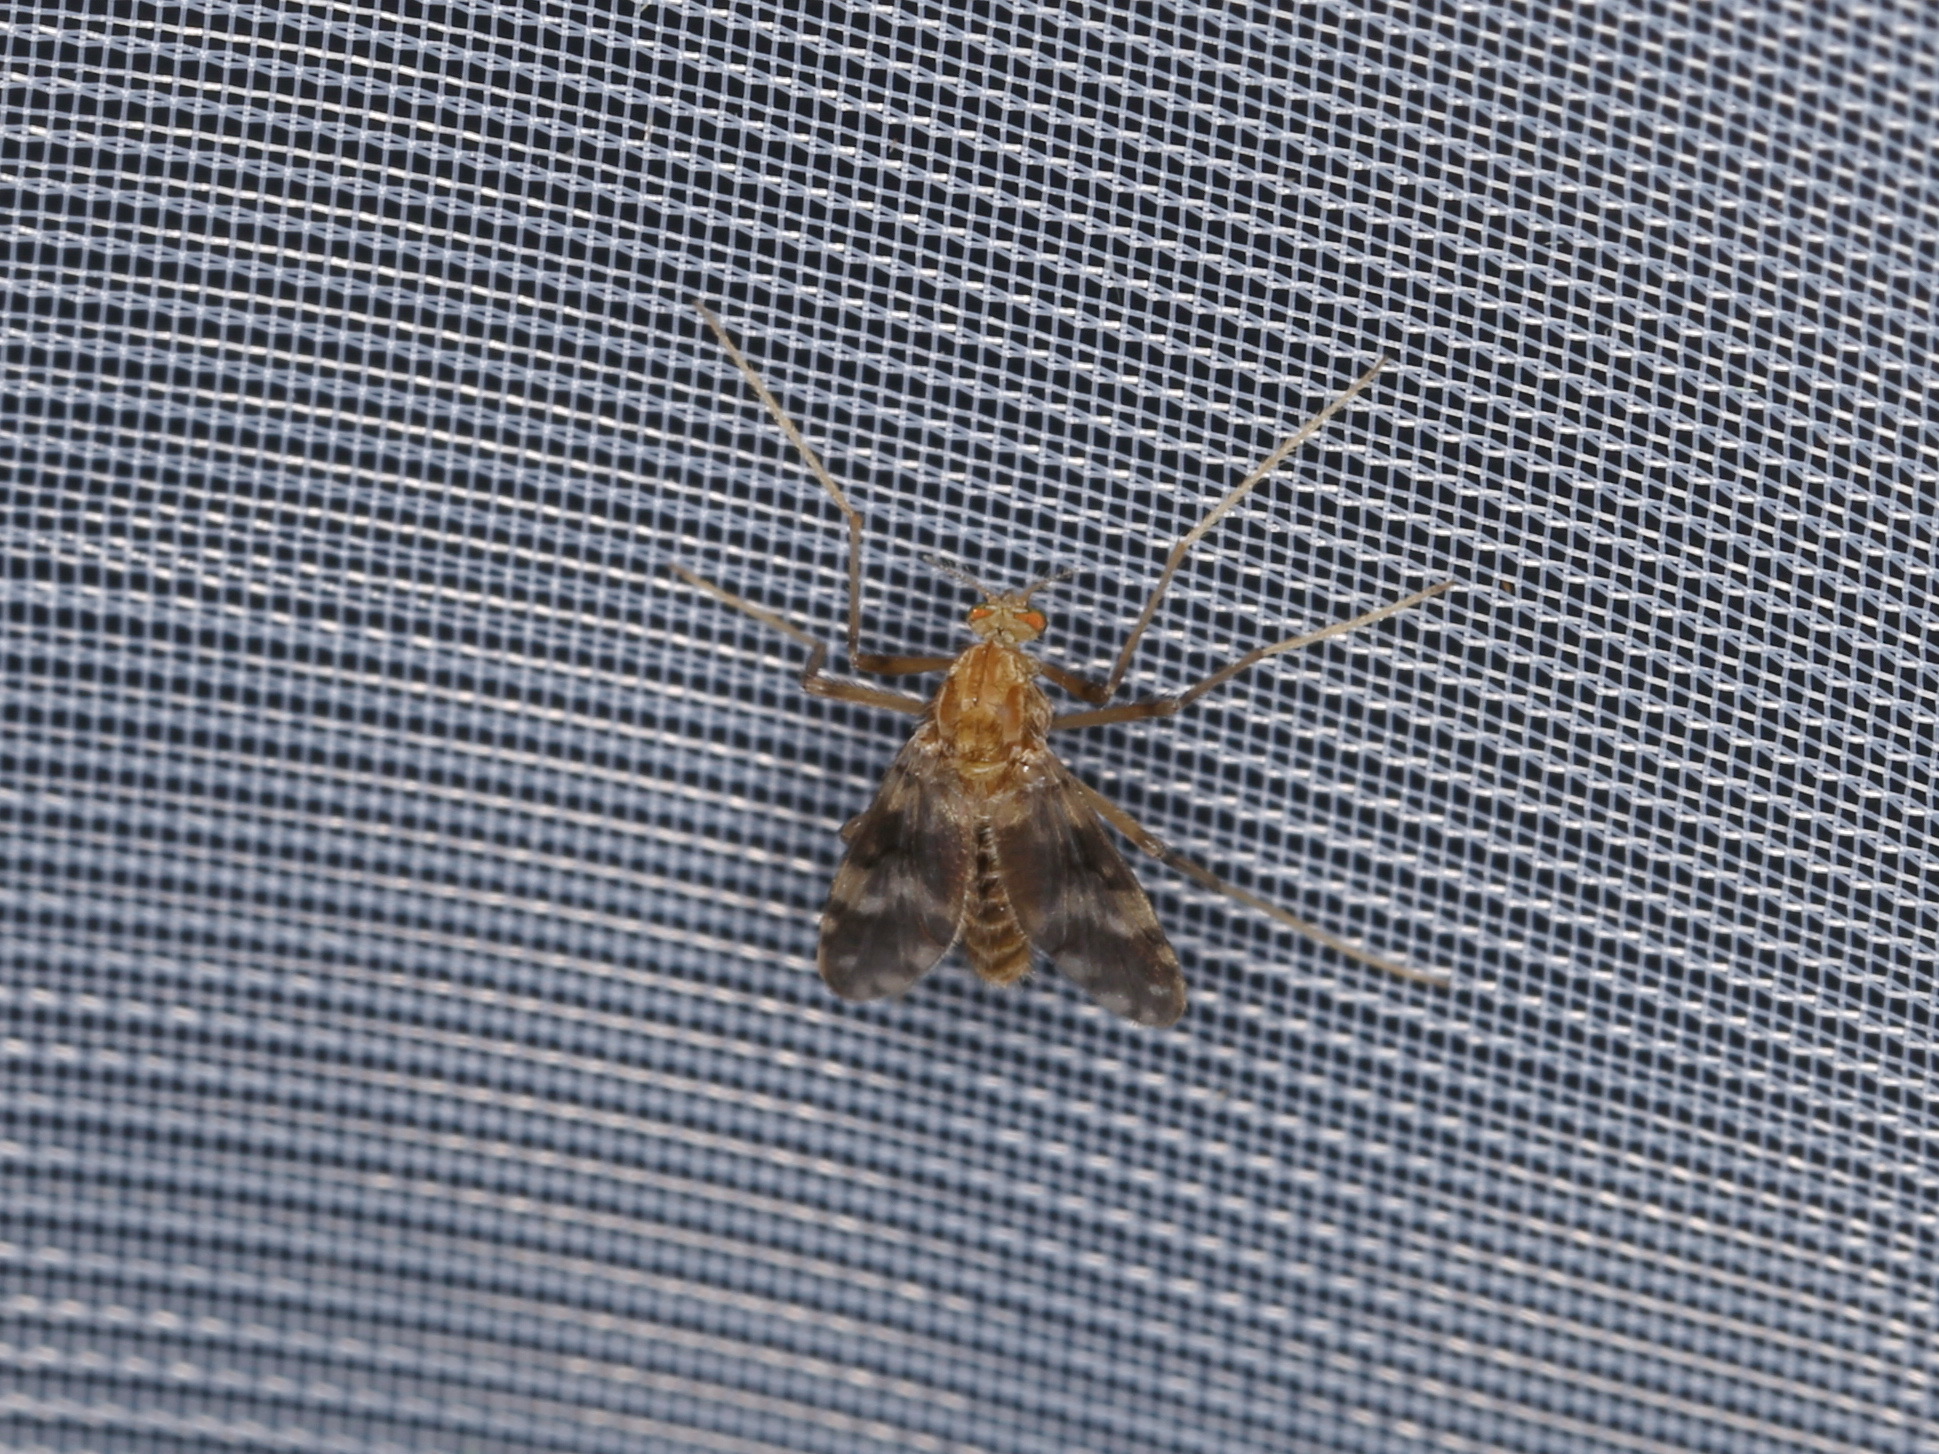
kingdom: Animalia
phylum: Arthropoda
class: Insecta
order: Diptera
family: Chironomidae
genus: Psectrotanypus
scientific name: Psectrotanypus varius
